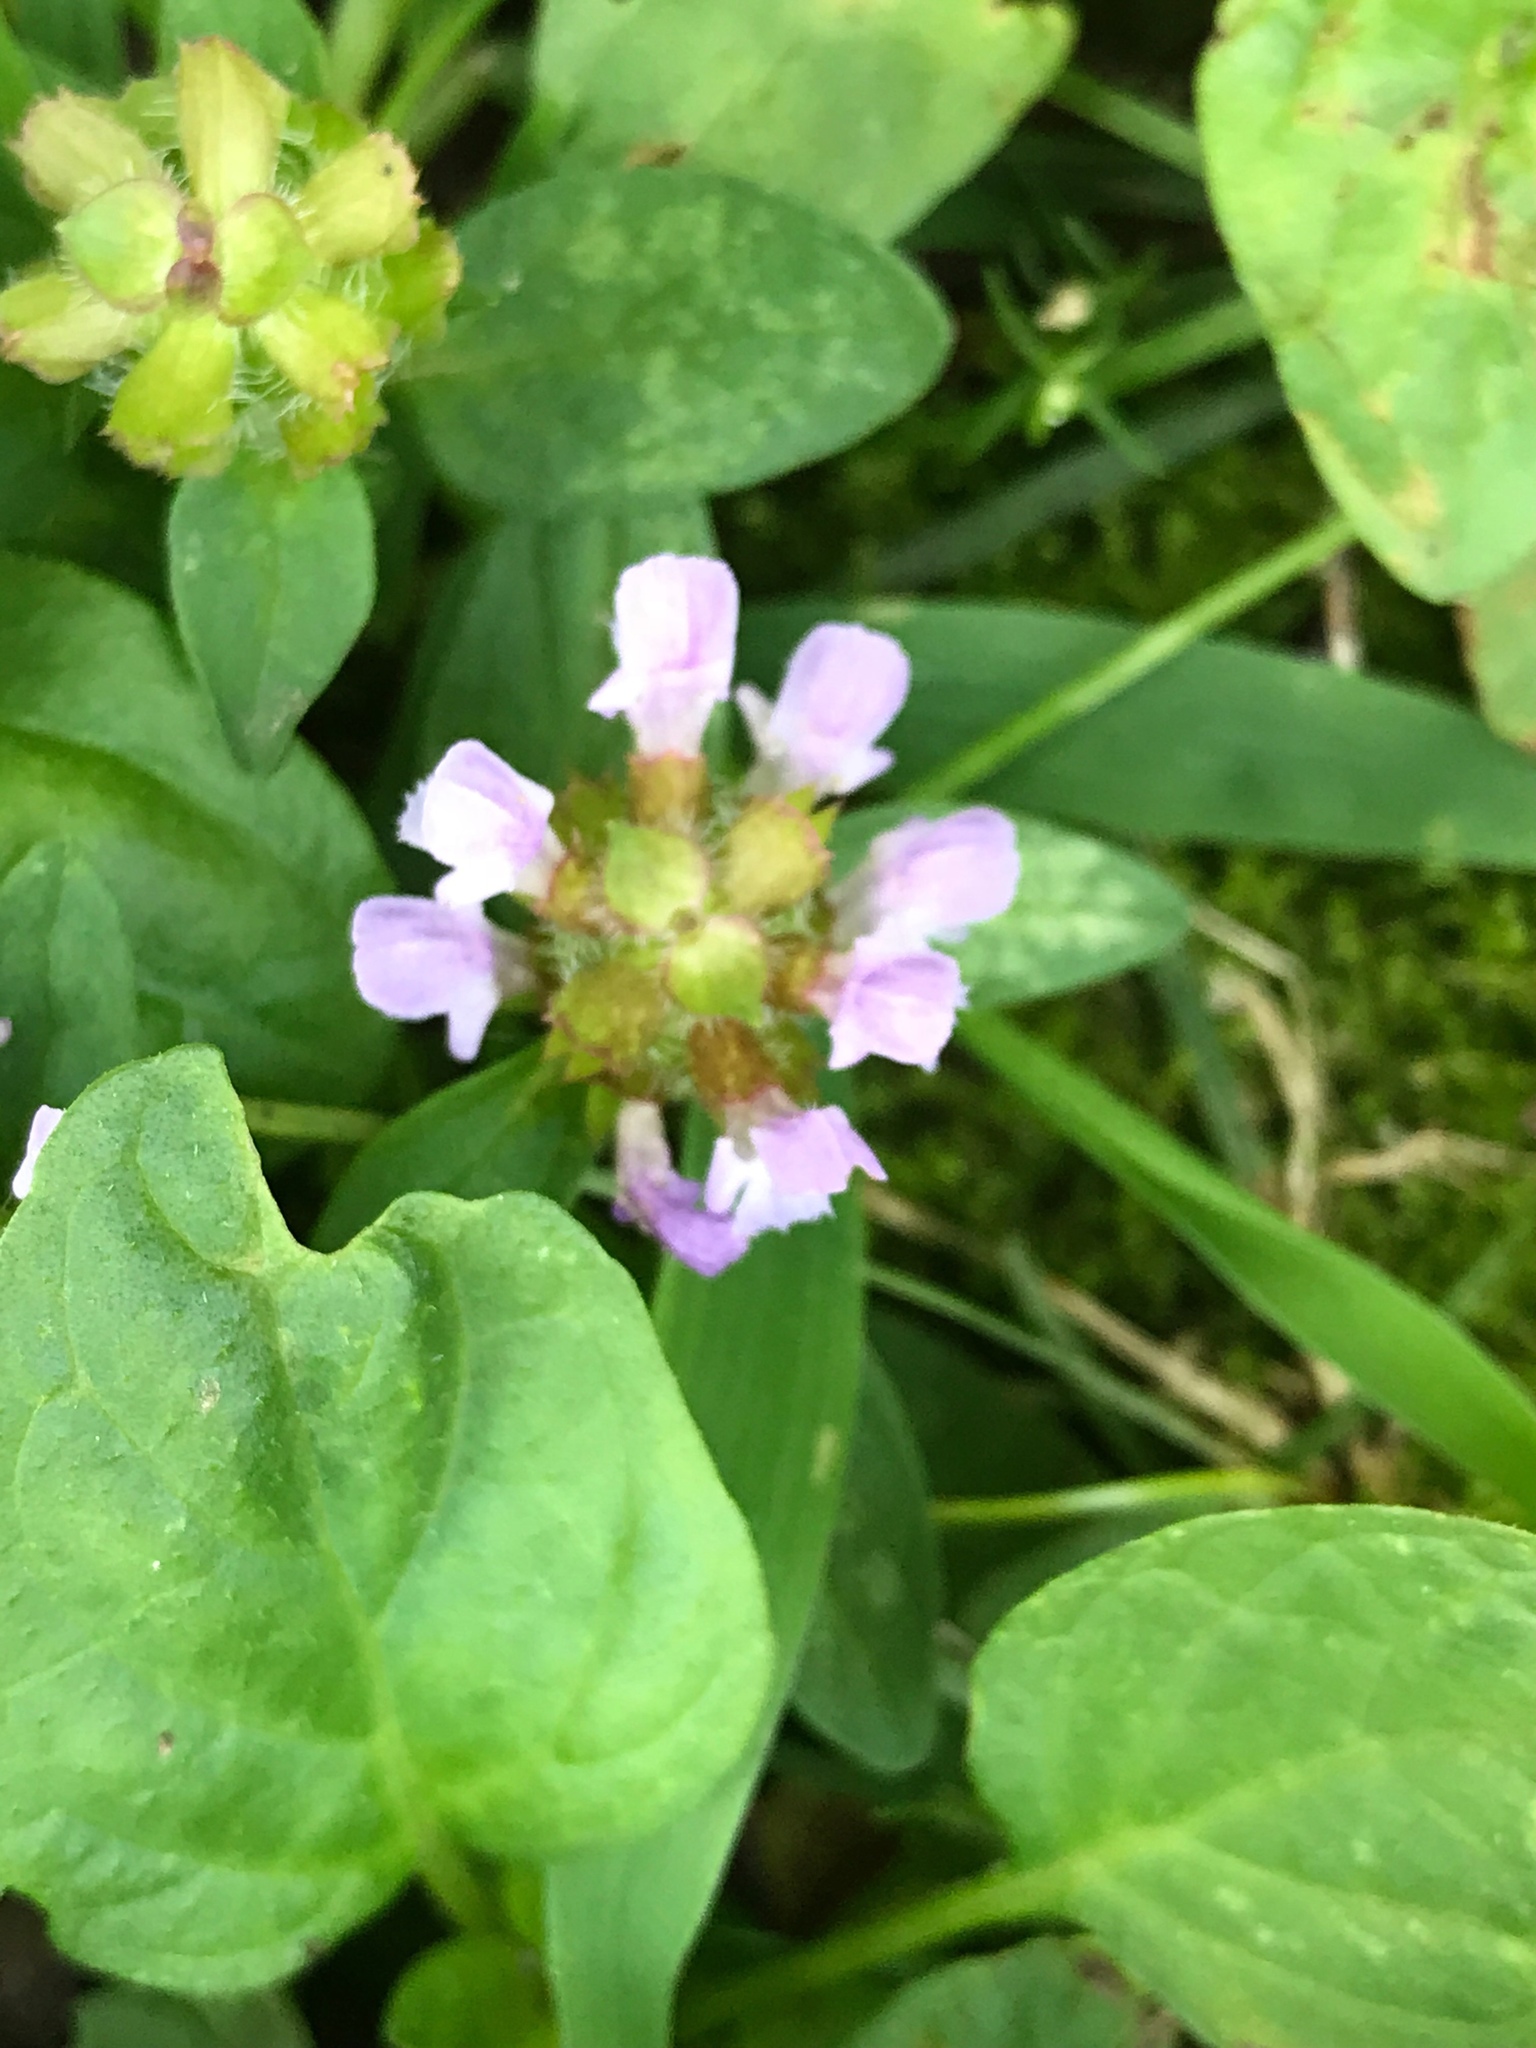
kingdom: Plantae
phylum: Tracheophyta
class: Magnoliopsida
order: Lamiales
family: Lamiaceae
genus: Prunella
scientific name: Prunella vulgaris
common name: Heal-all
